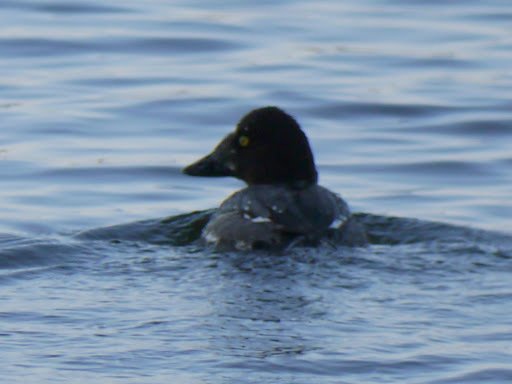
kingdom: Animalia
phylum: Chordata
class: Aves
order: Anseriformes
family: Anatidae
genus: Bucephala
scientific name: Bucephala clangula
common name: Common goldeneye
